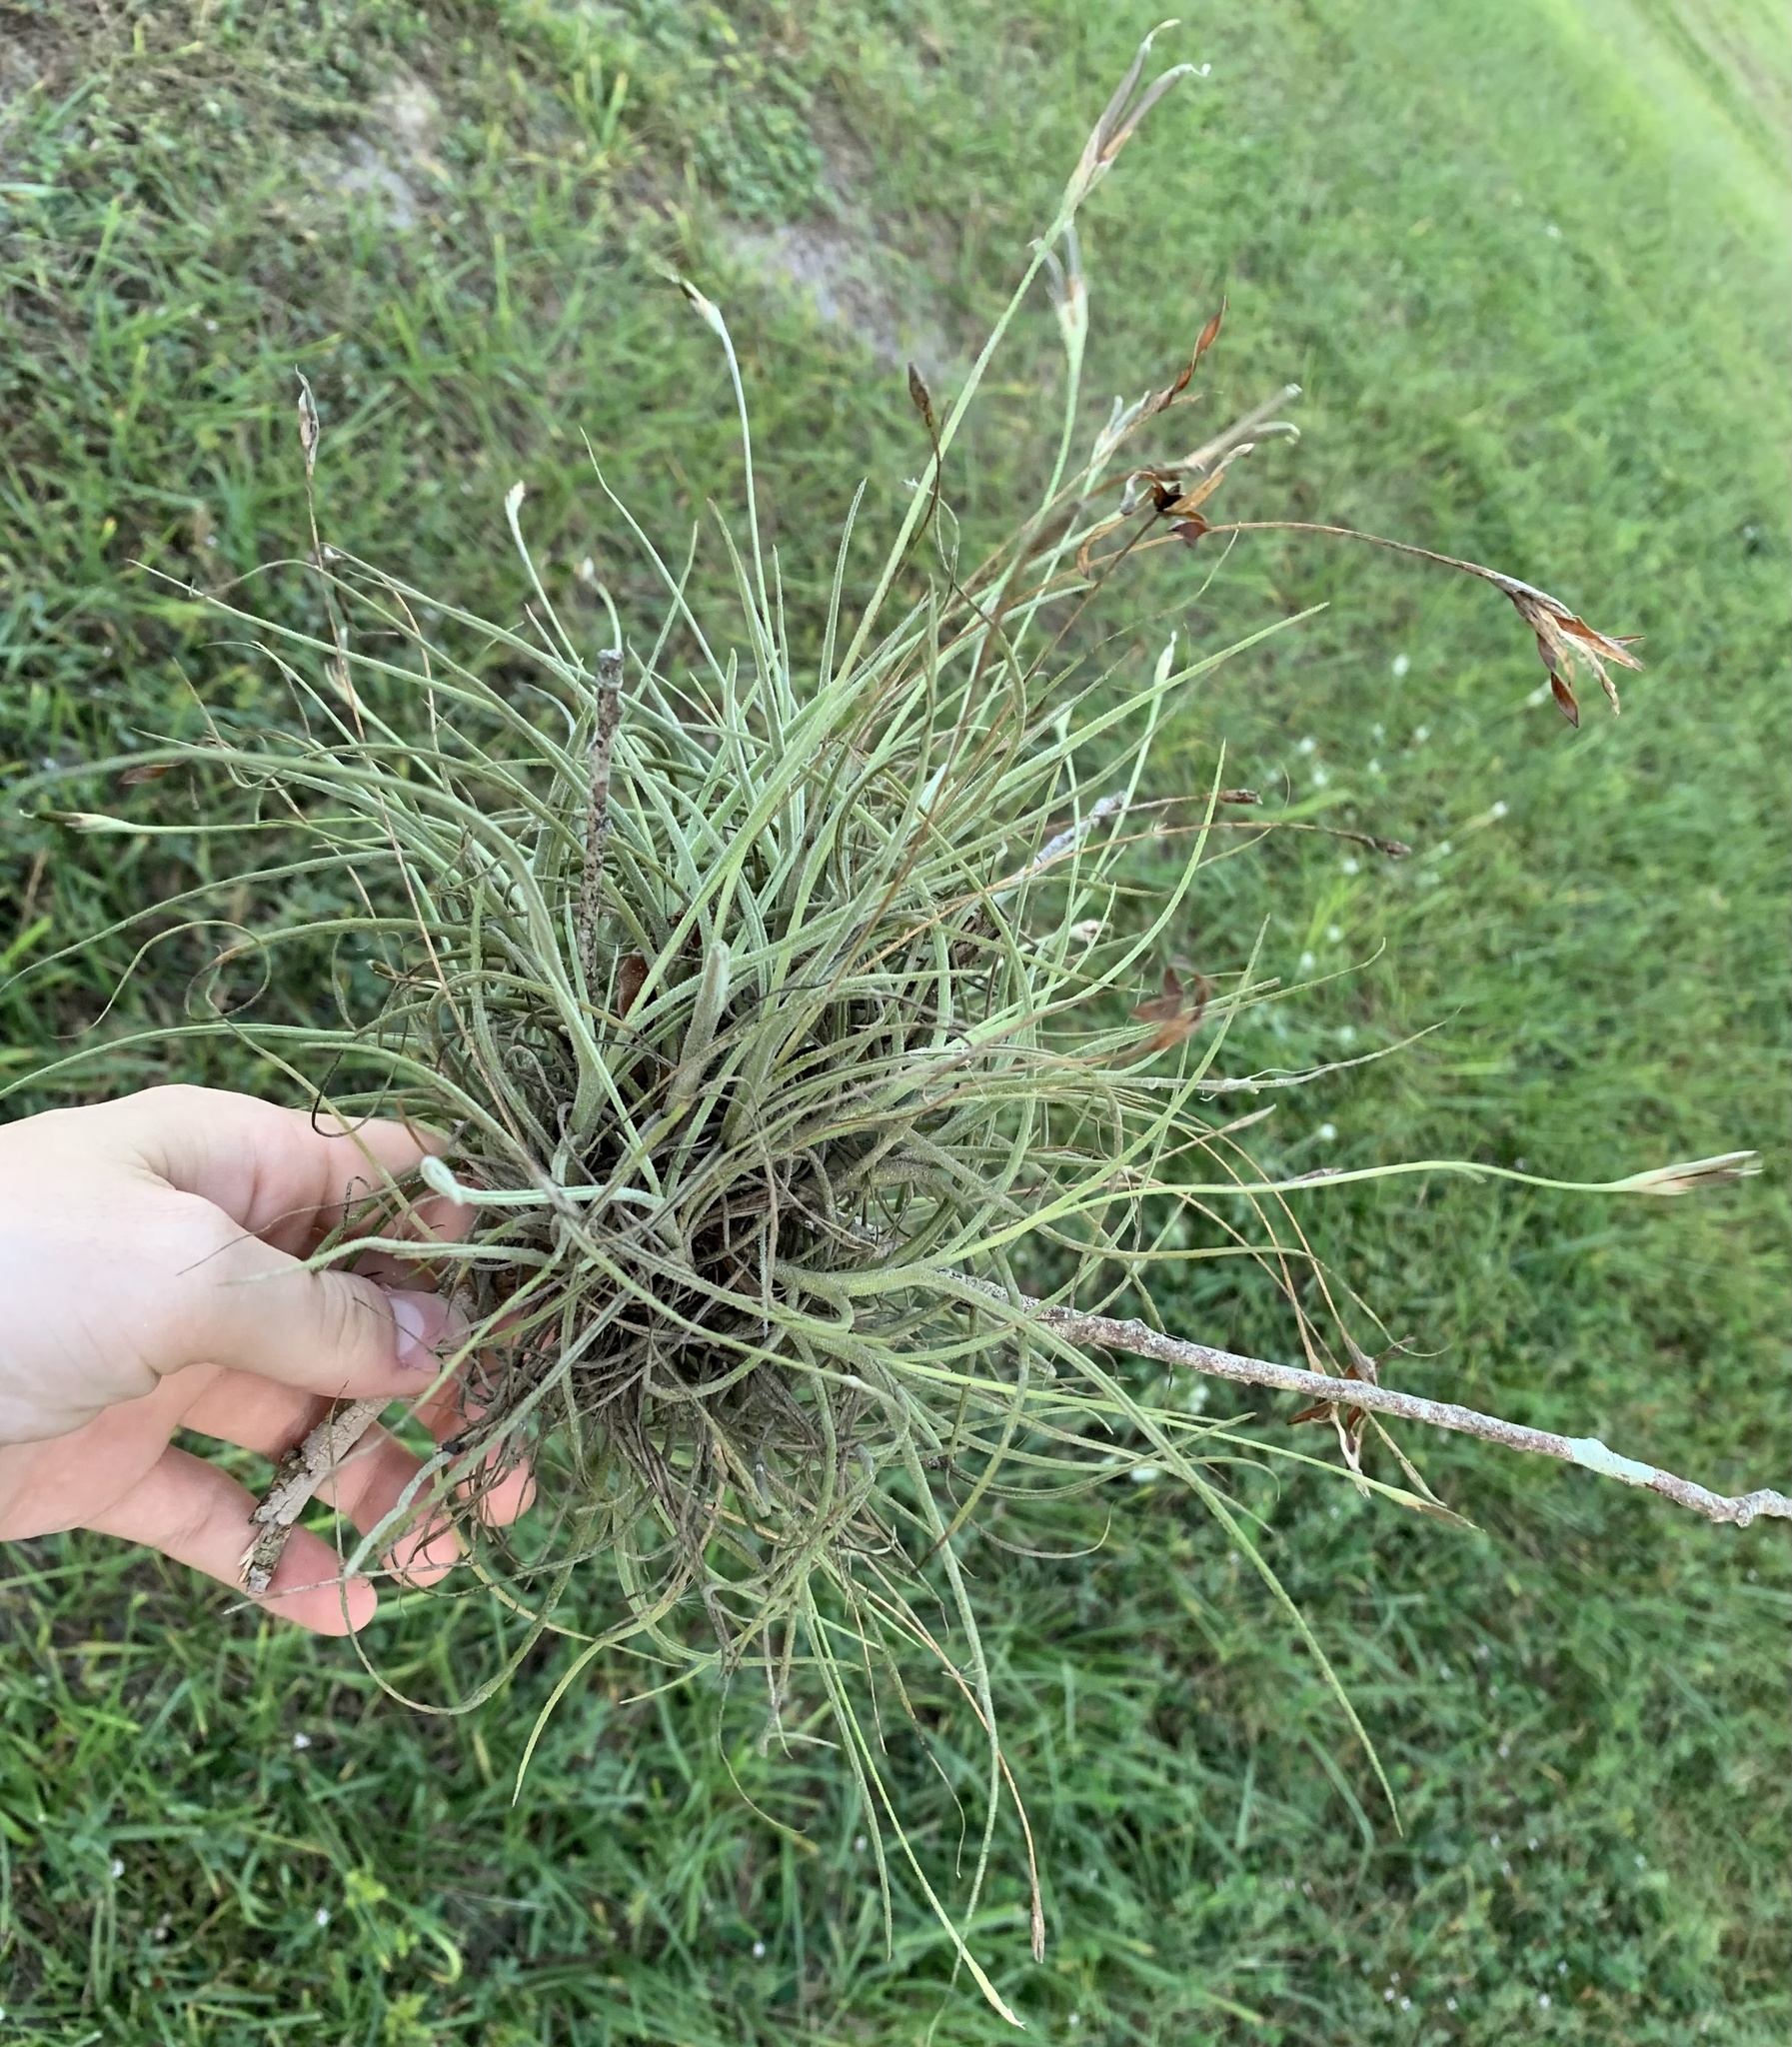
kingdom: Plantae
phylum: Tracheophyta
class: Liliopsida
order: Poales
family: Bromeliaceae
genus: Tillandsia
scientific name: Tillandsia recurvata
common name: Small ballmoss
